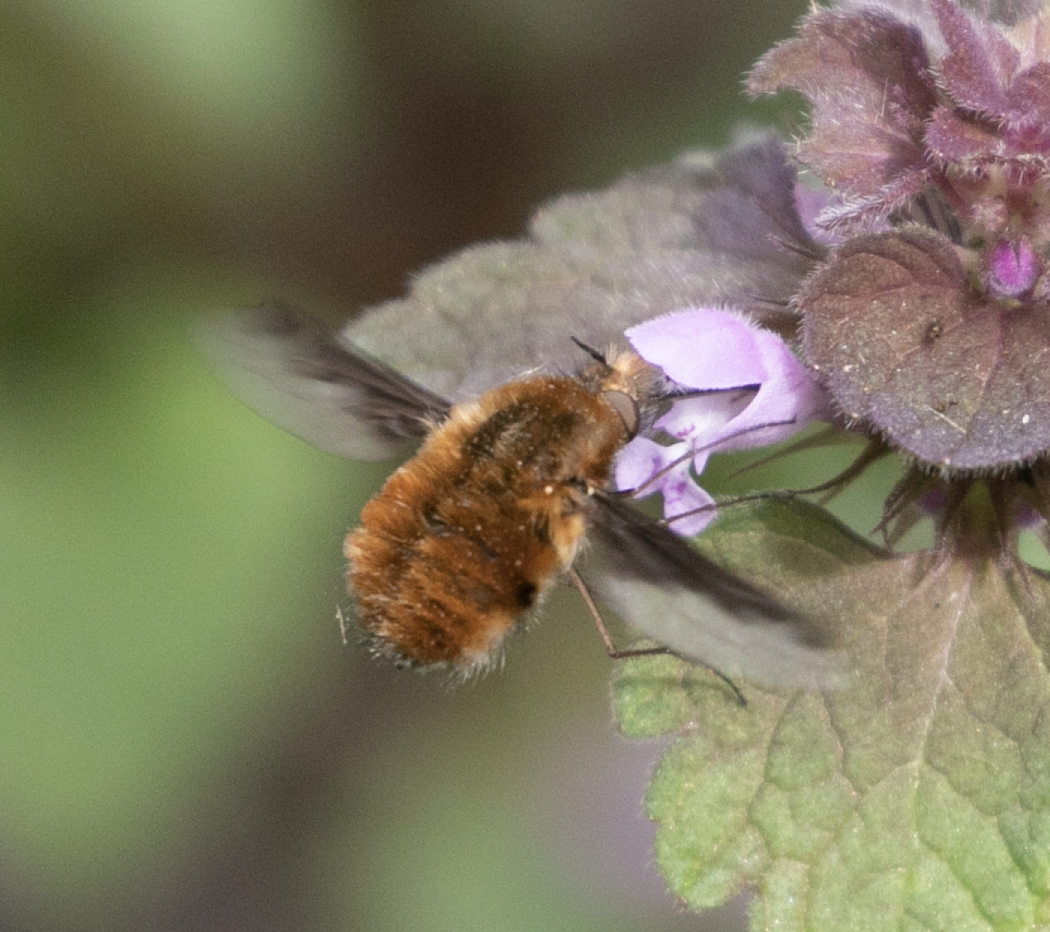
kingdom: Animalia
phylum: Arthropoda
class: Insecta
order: Diptera
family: Bombyliidae
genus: Bombylius
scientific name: Bombylius major
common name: Bee fly
